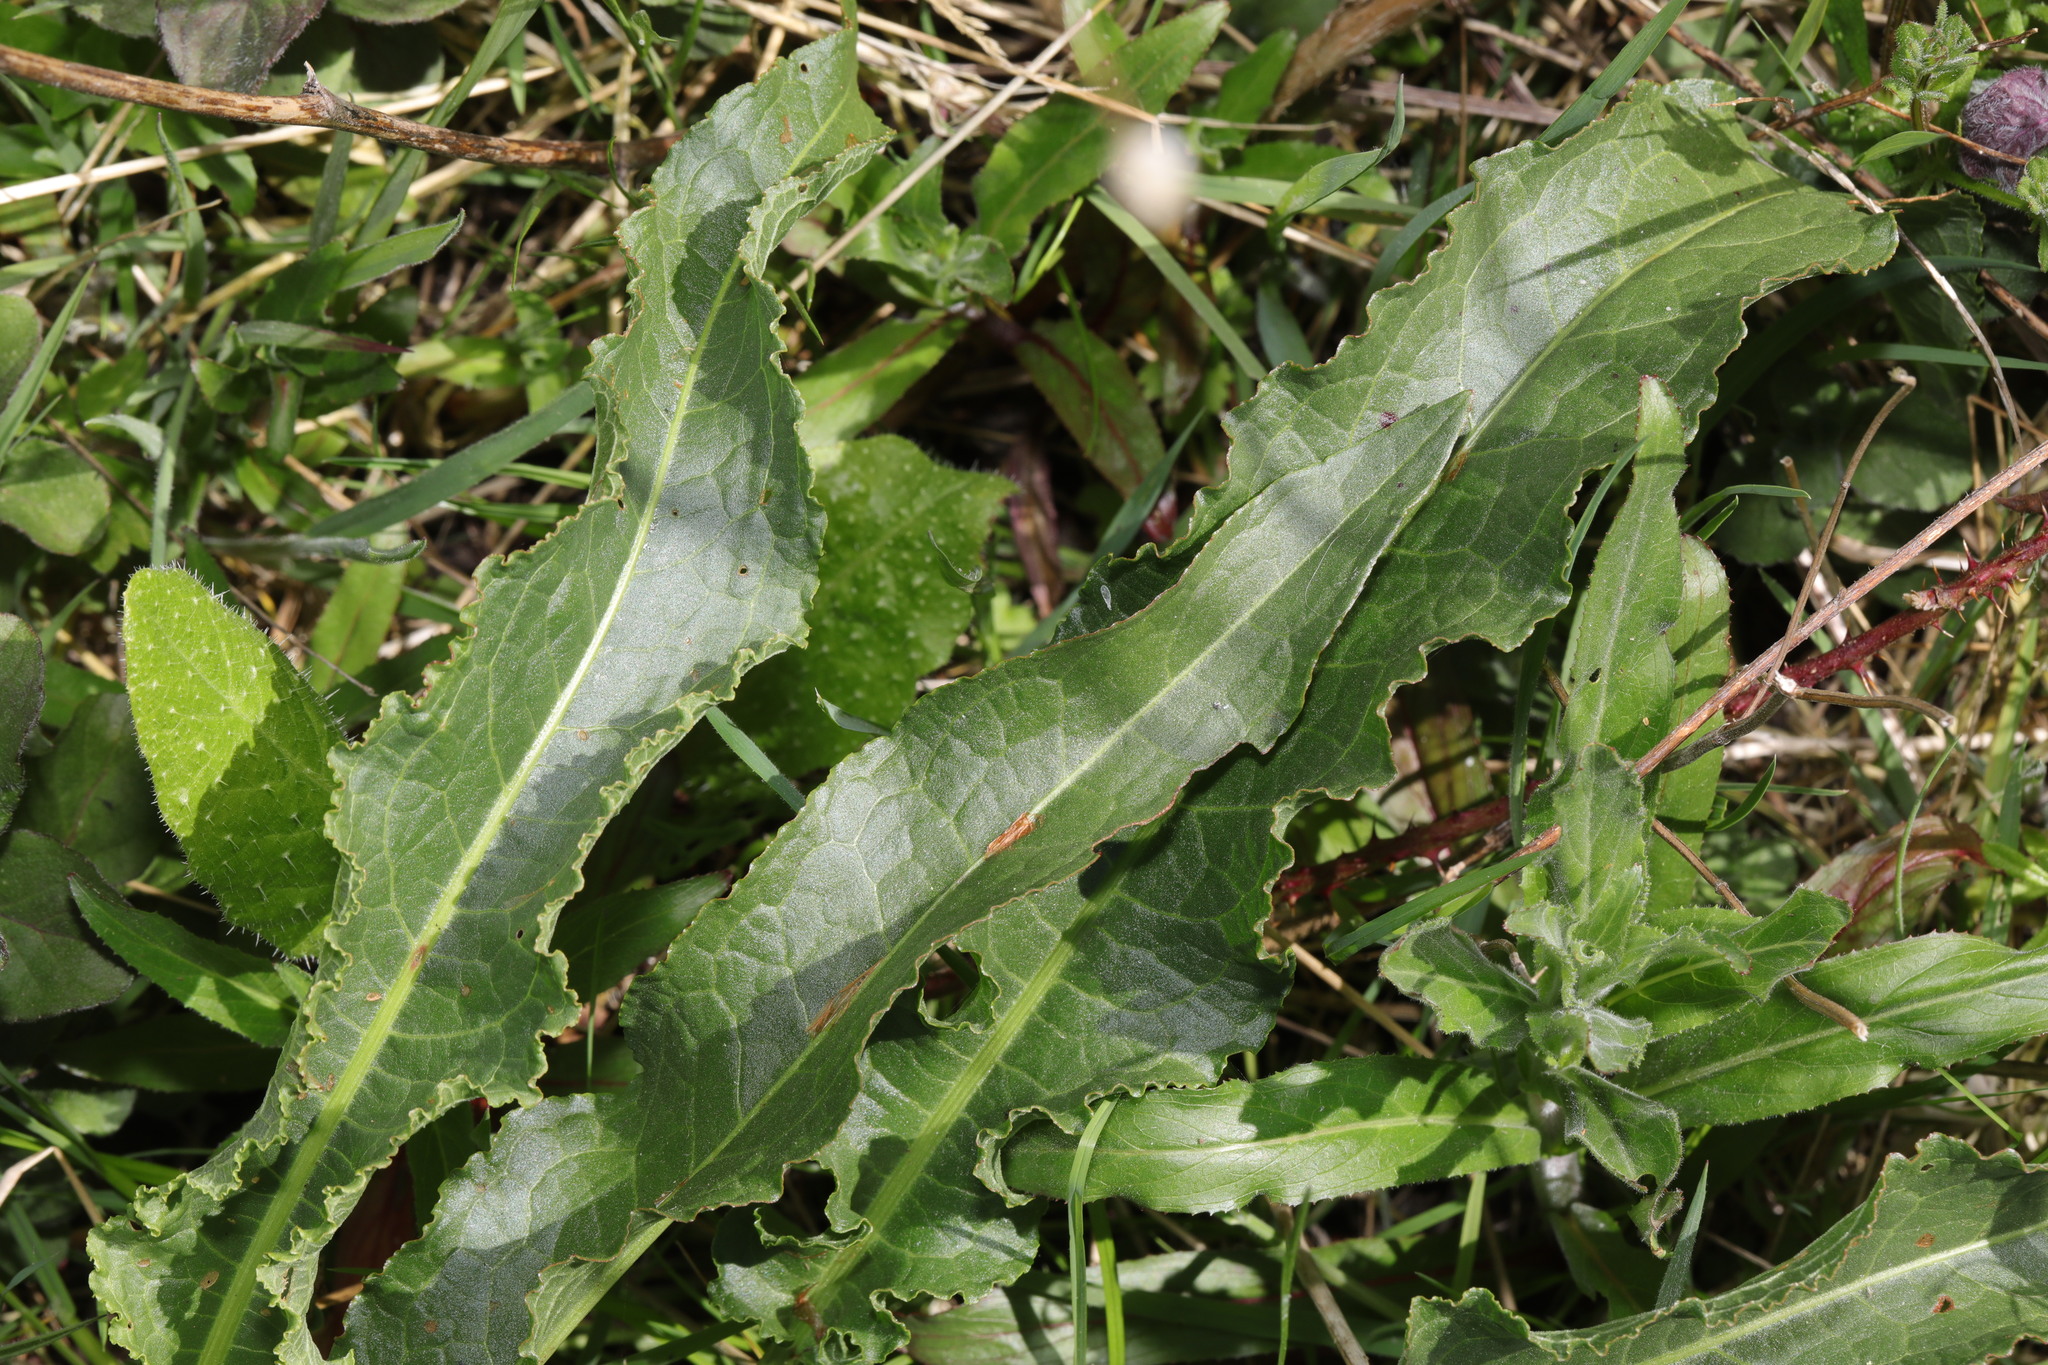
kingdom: Plantae
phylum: Tracheophyta
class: Magnoliopsida
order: Caryophyllales
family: Polygonaceae
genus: Rumex
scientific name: Rumex crispus
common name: Curled dock
